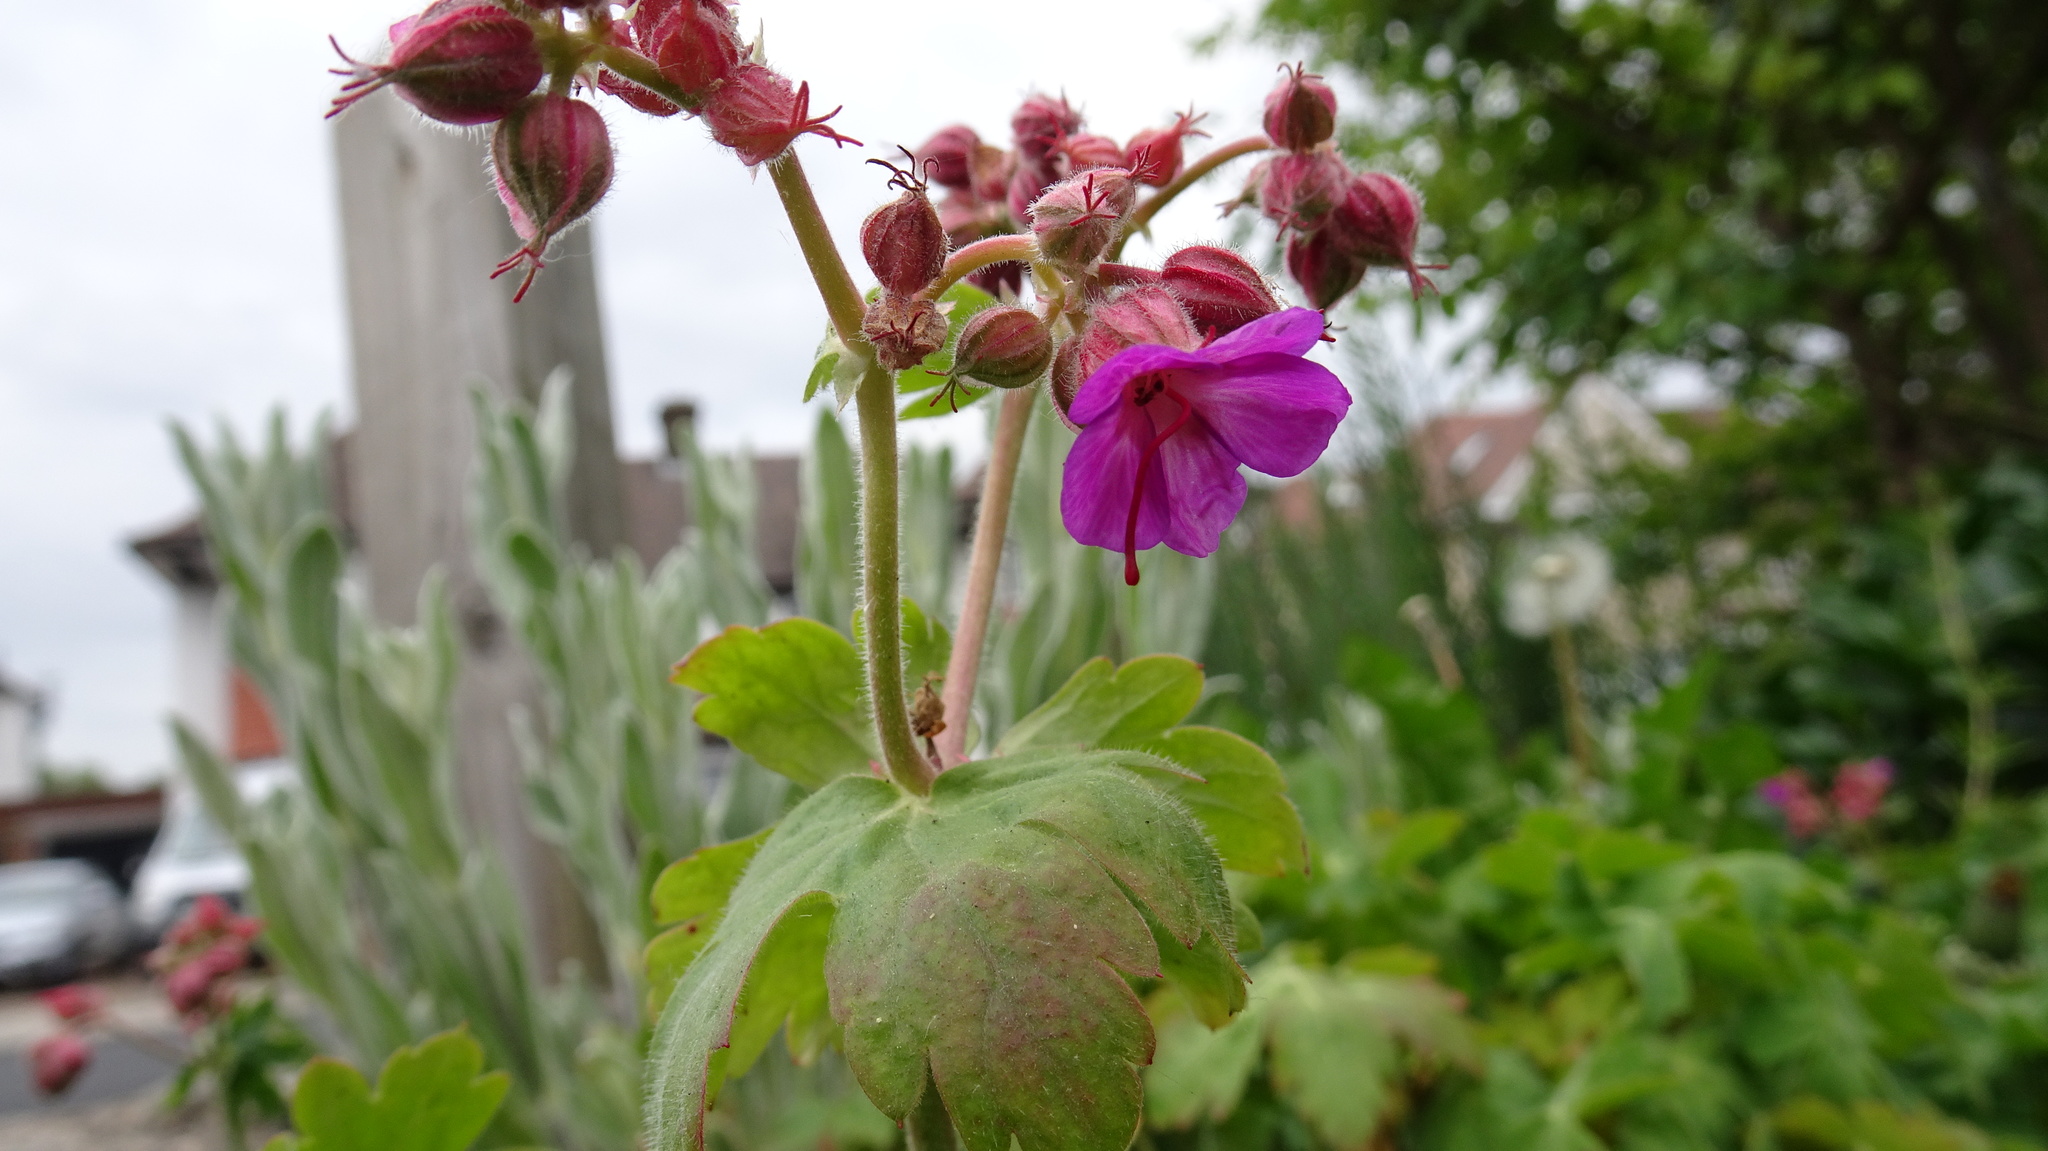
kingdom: Plantae
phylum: Tracheophyta
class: Magnoliopsida
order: Geraniales
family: Geraniaceae
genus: Geranium
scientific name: Geranium macrorrhizum
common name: Rock crane's-bill
